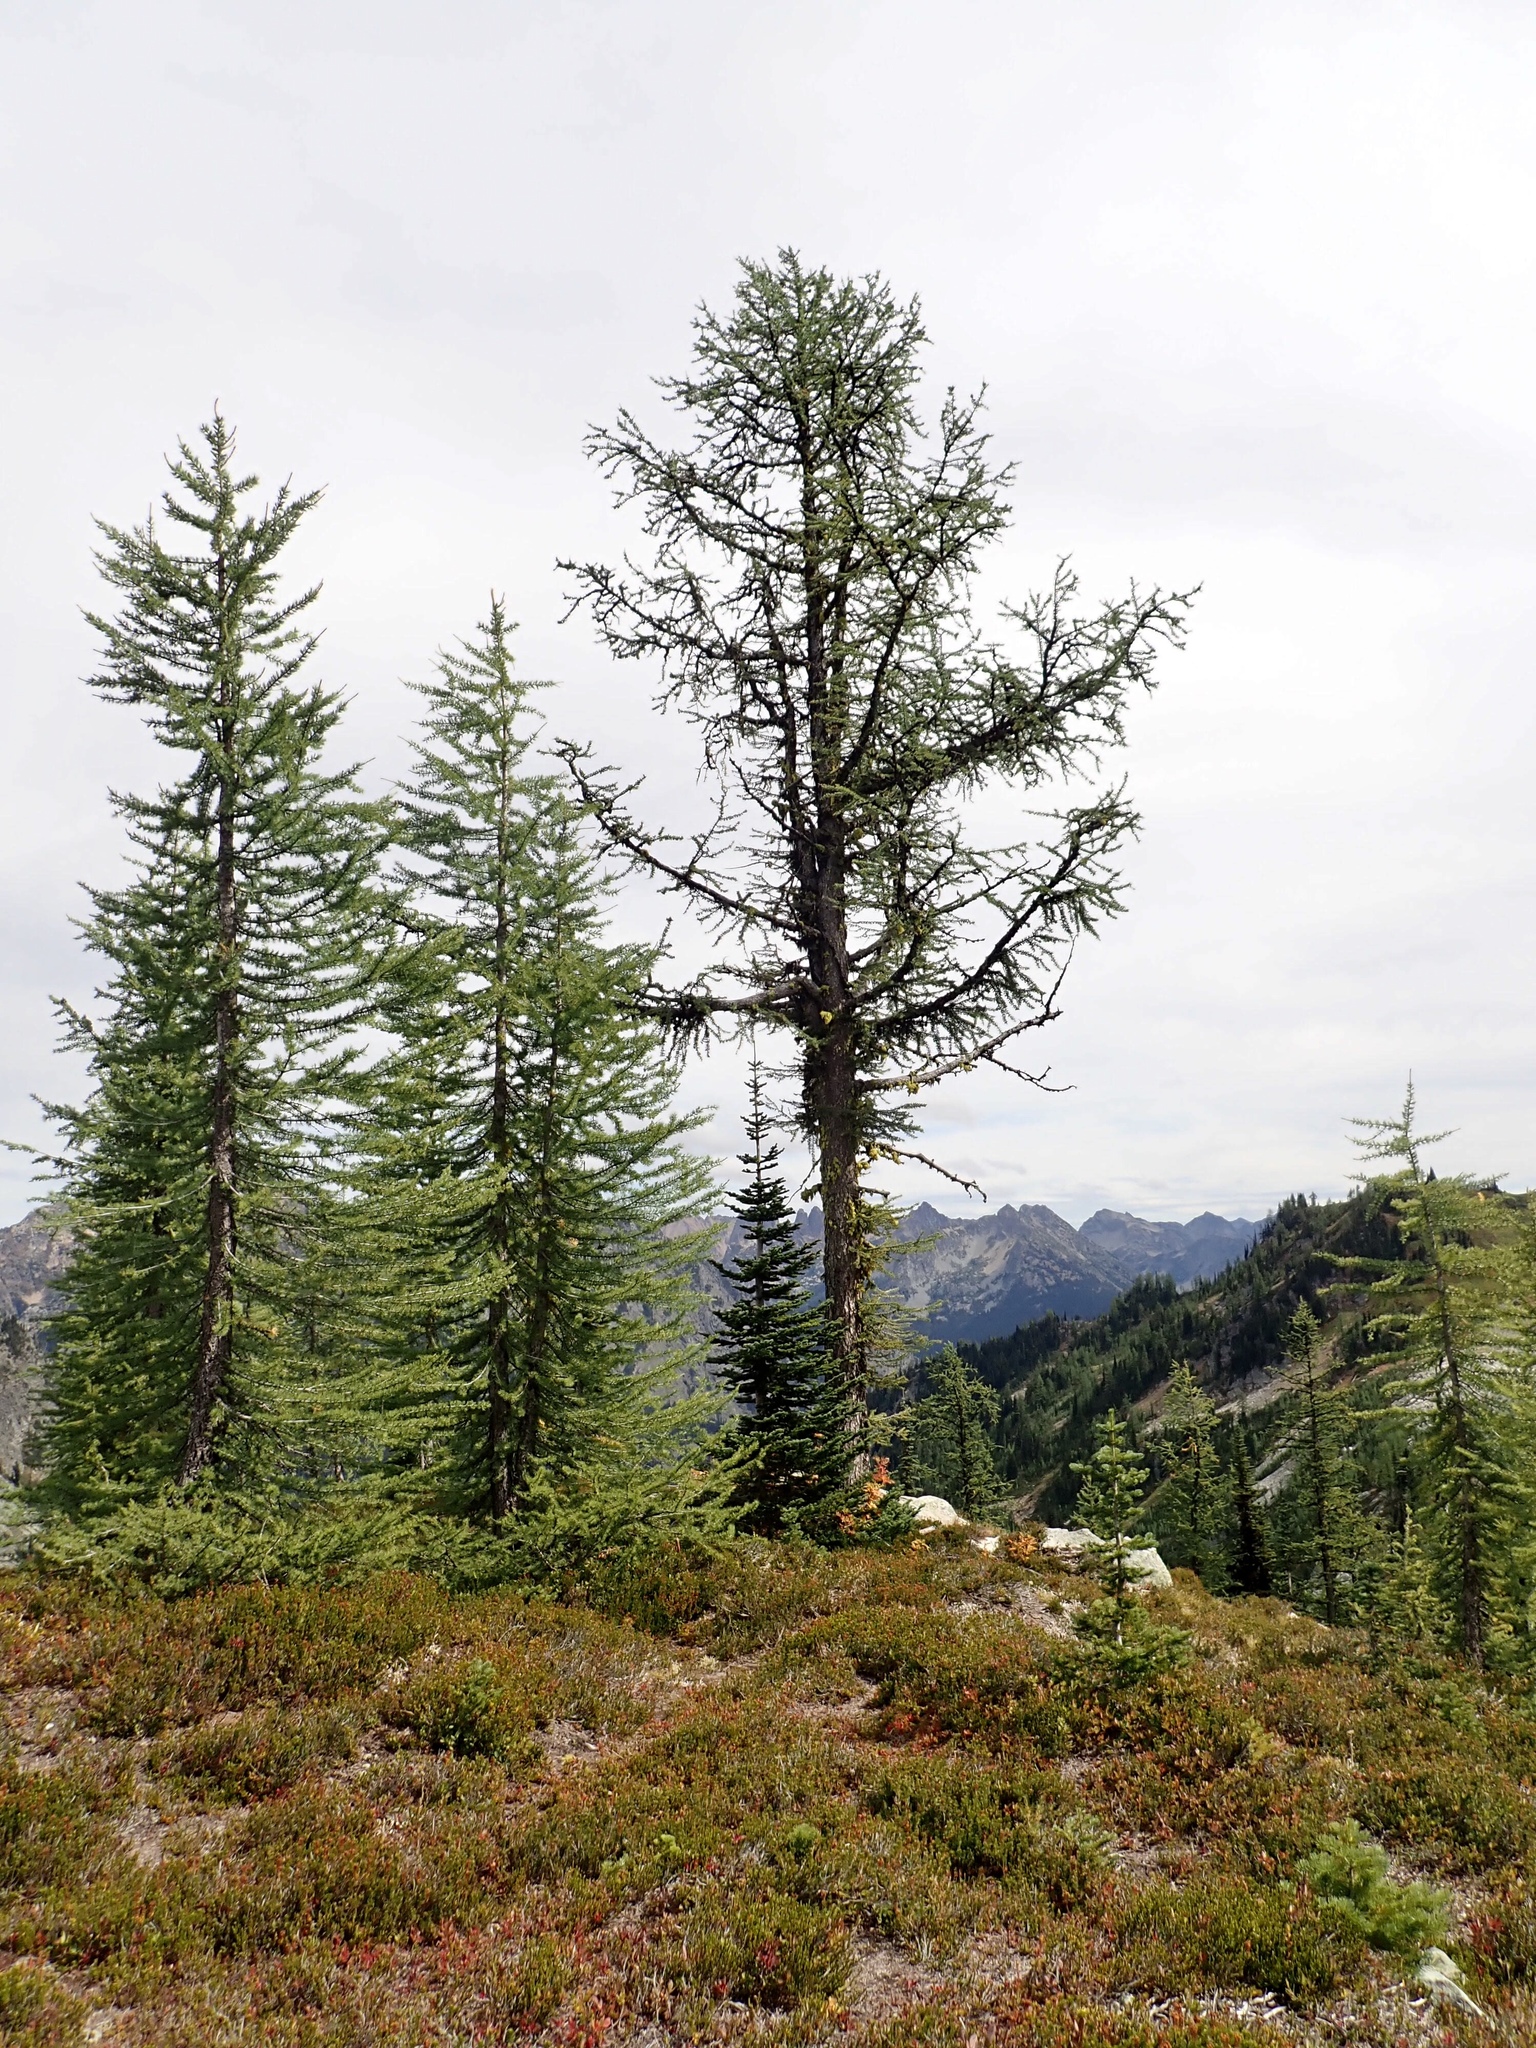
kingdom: Plantae
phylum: Tracheophyta
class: Pinopsida
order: Pinales
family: Pinaceae
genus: Larix
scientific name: Larix lyallii
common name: Alpine larch
